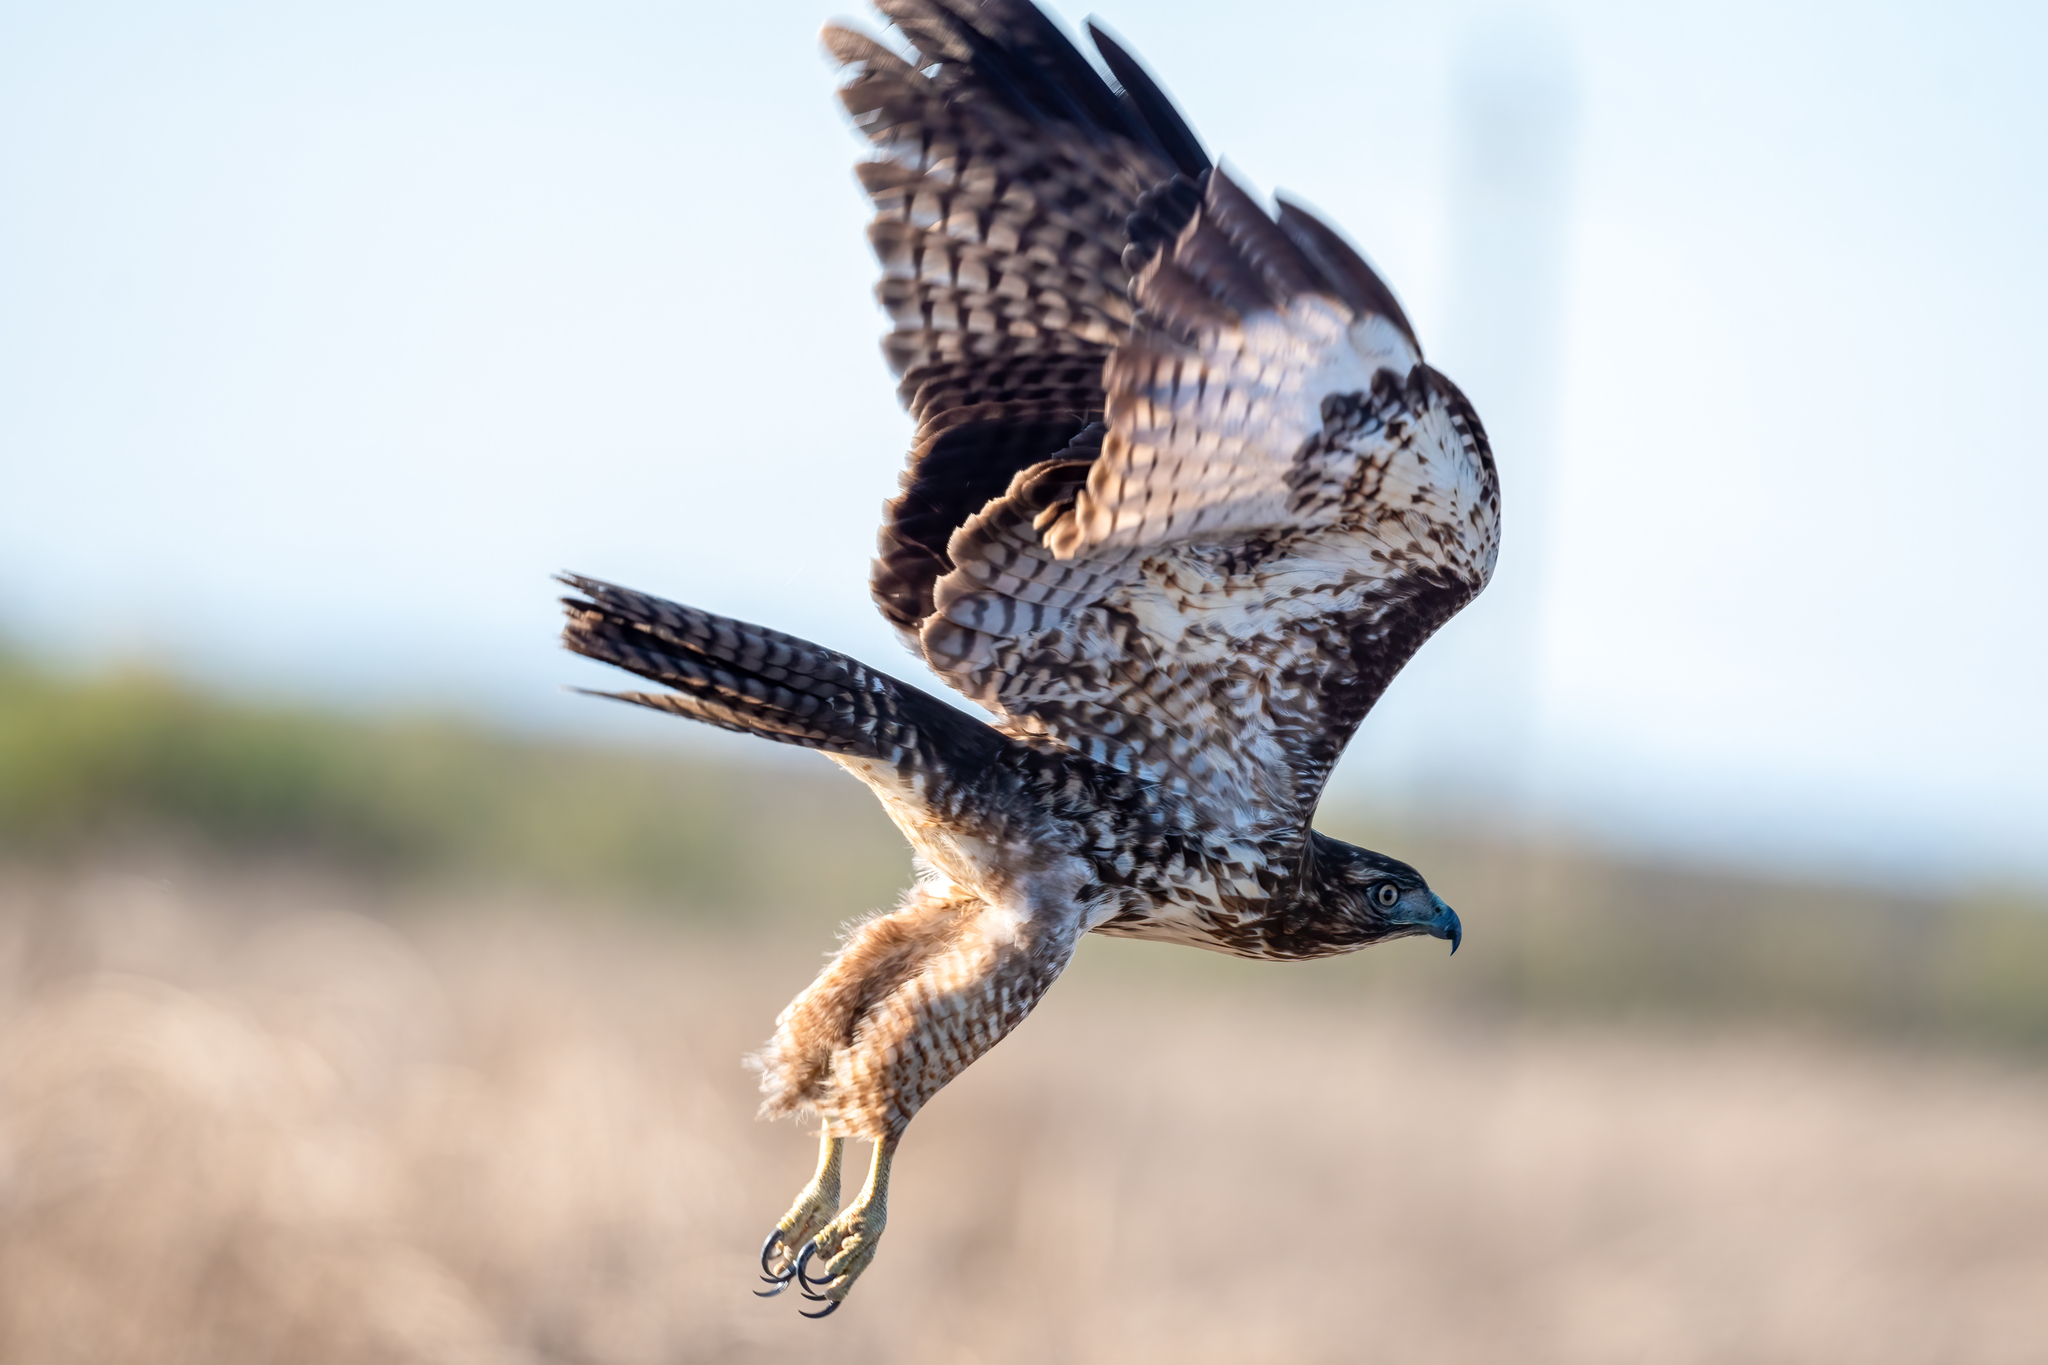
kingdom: Animalia
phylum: Chordata
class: Aves
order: Accipitriformes
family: Accipitridae
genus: Buteo
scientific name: Buteo jamaicensis
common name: Red-tailed hawk
